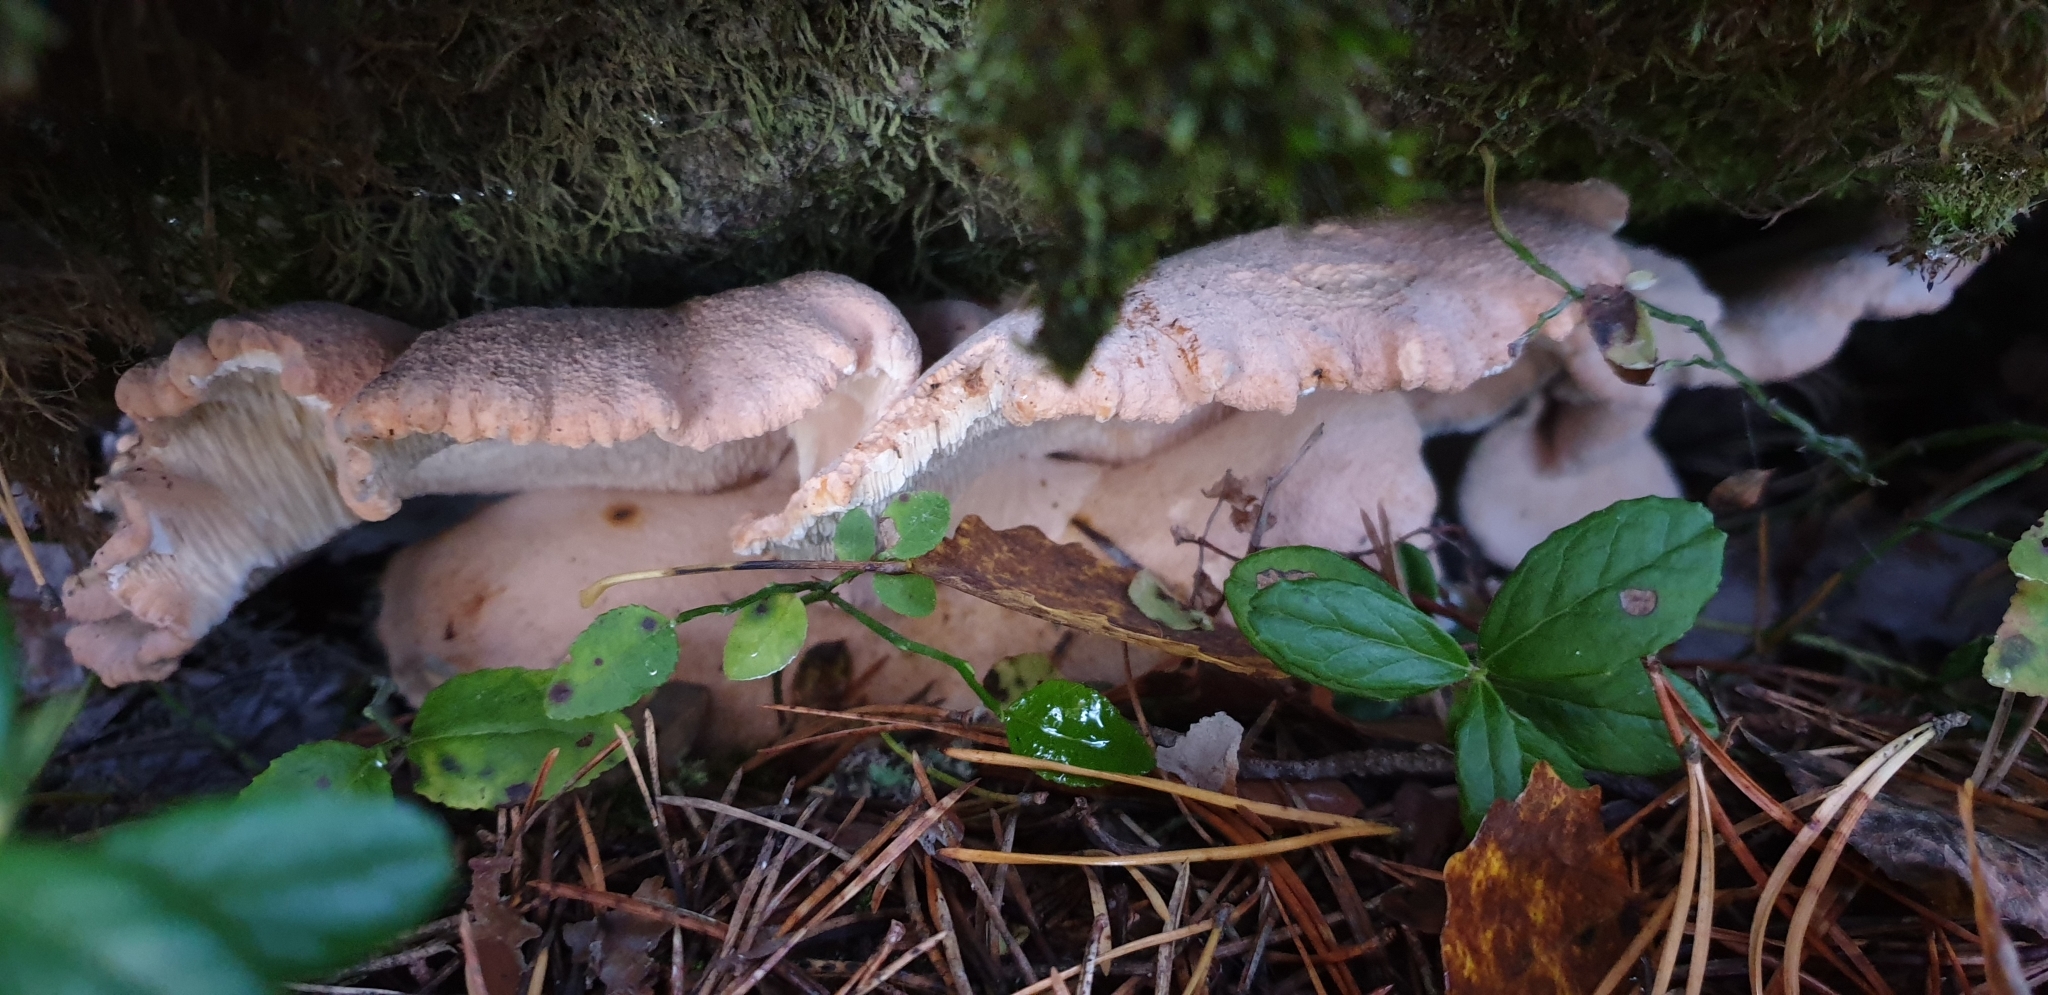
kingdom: Fungi
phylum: Basidiomycota
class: Agaricomycetes
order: Cantharellales
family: Hydnaceae
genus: Hydnum
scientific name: Hydnum repandum
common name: Wood hedgehog
